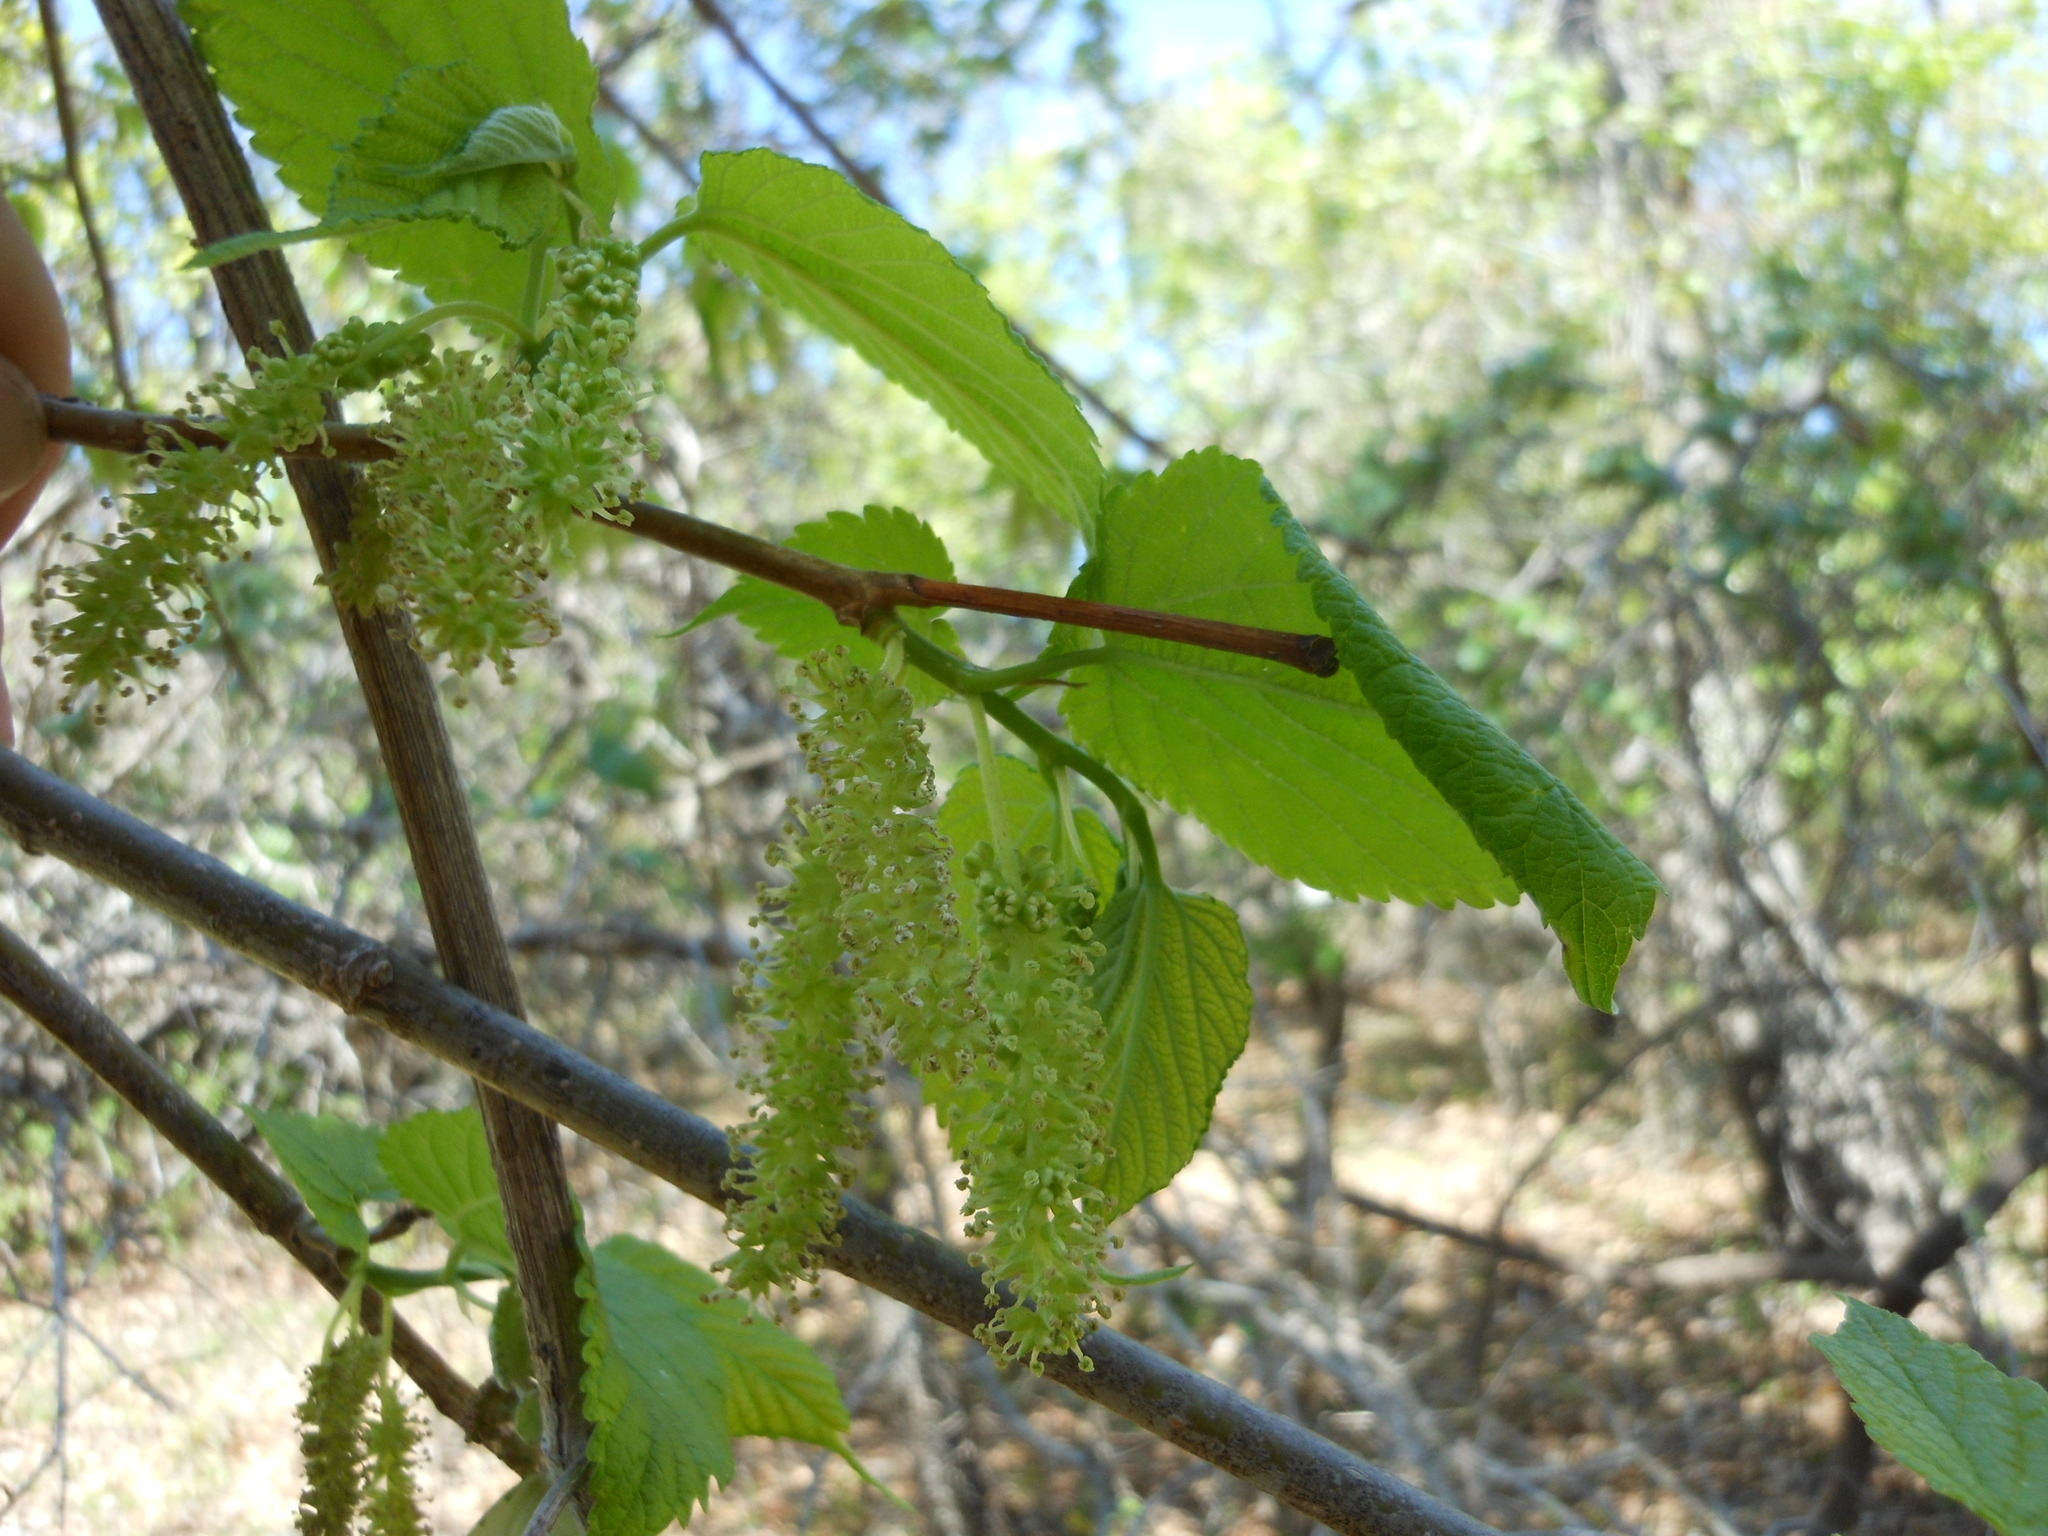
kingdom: Plantae
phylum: Tracheophyta
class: Magnoliopsida
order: Rosales
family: Moraceae
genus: Morus
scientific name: Morus rubra
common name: Red mulberry
